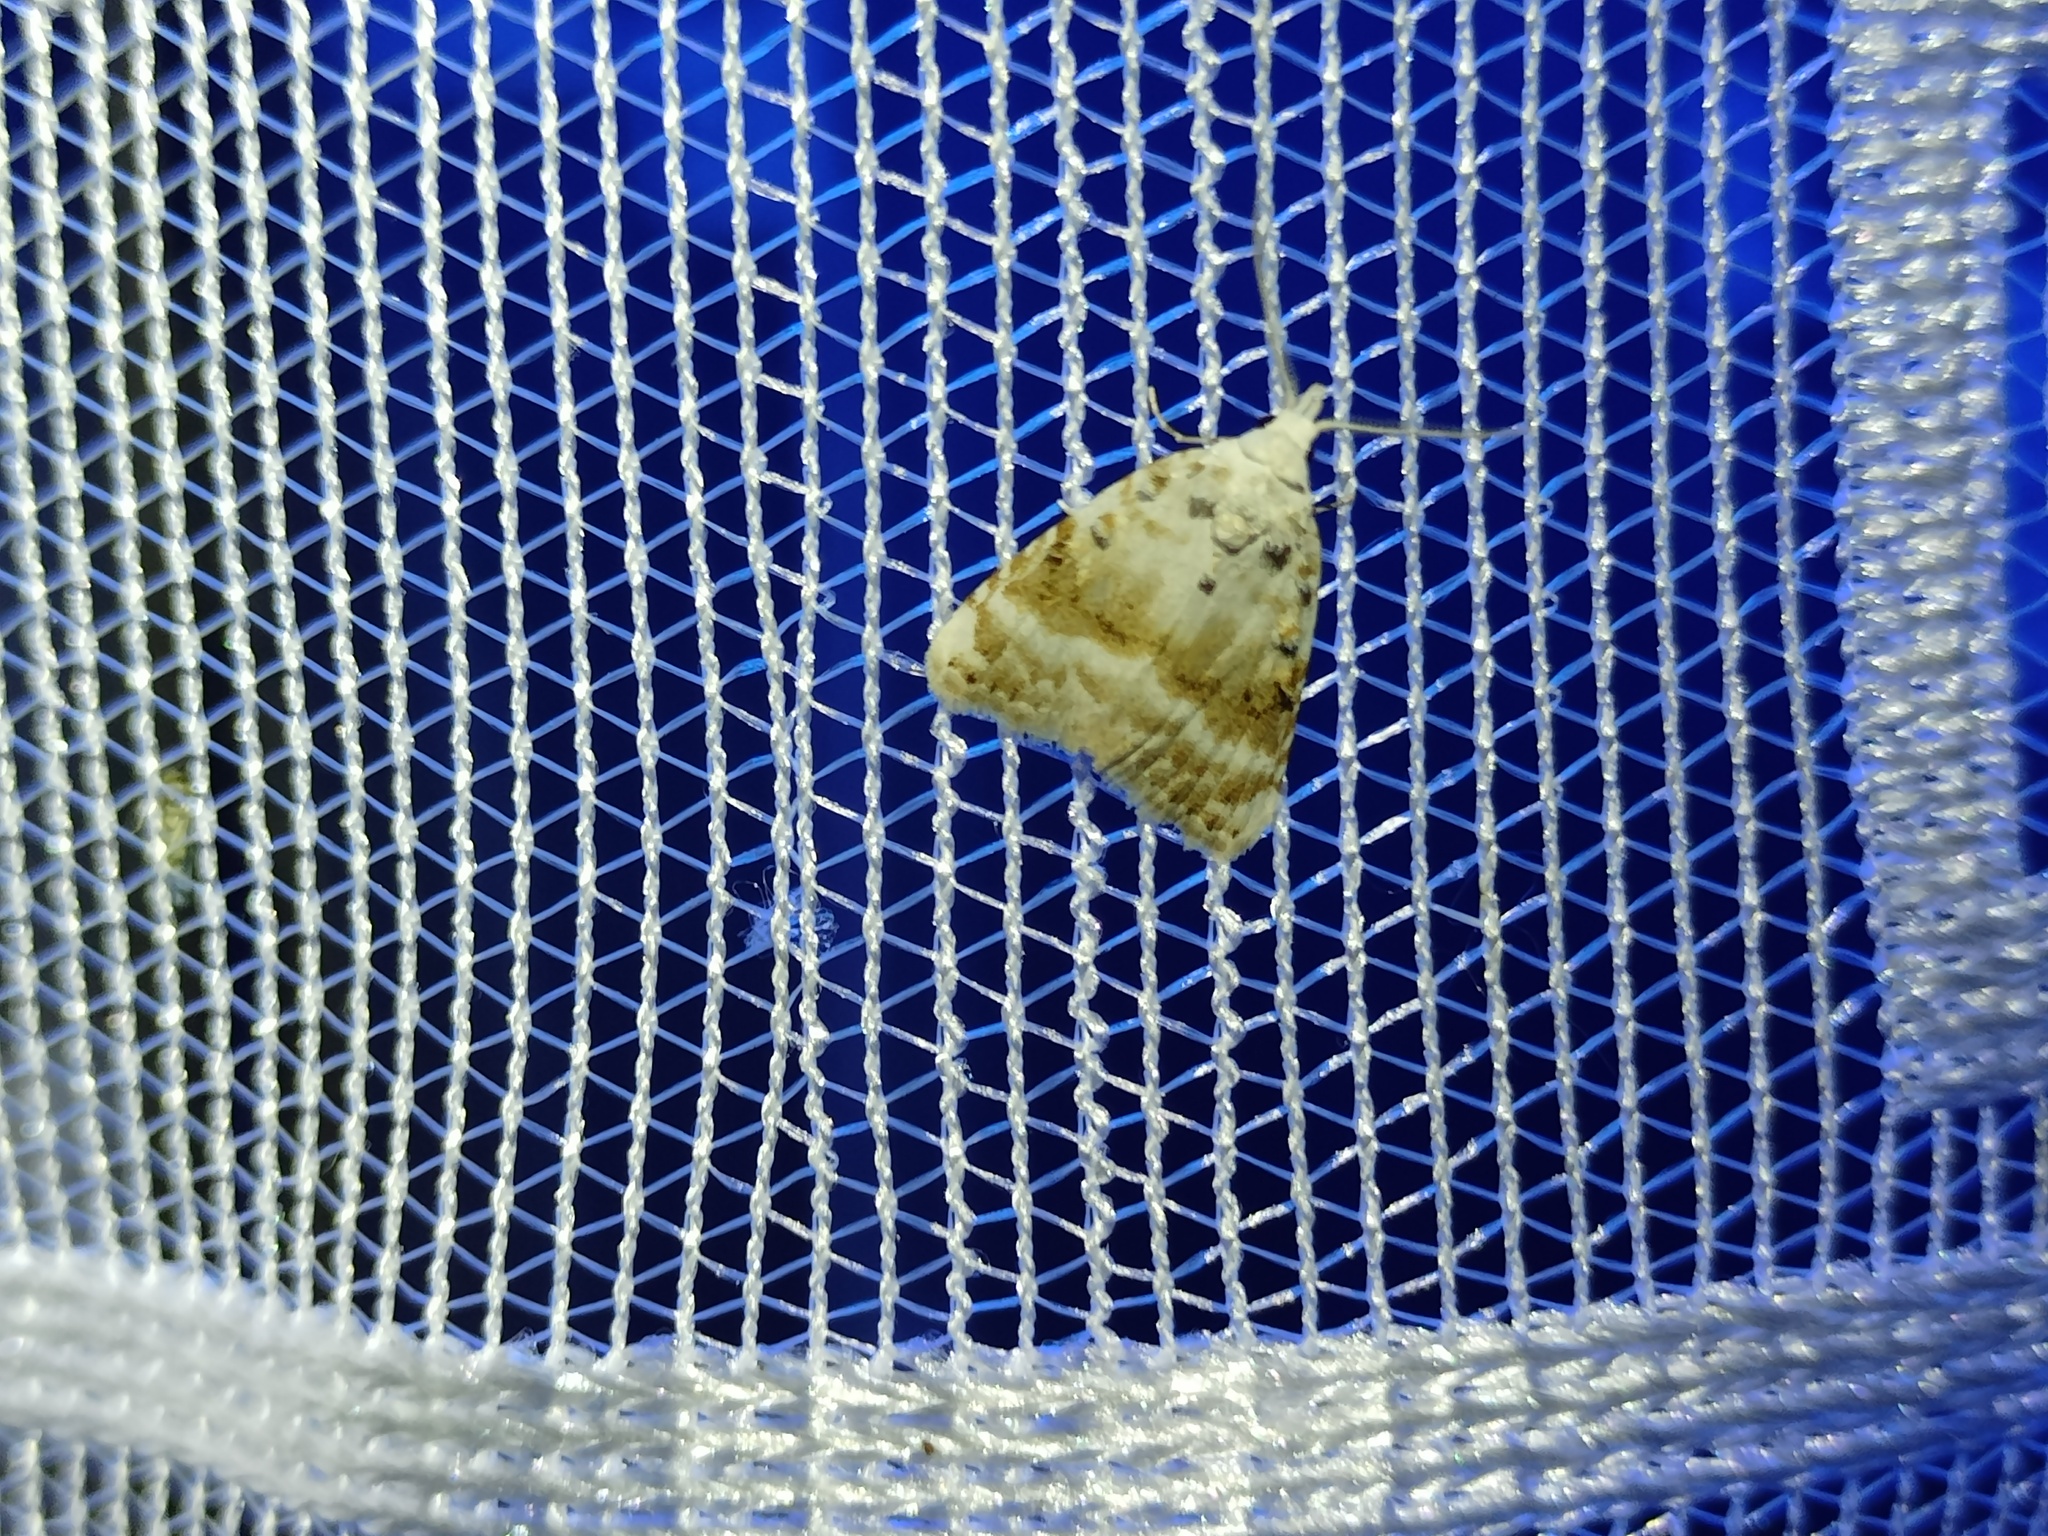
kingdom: Animalia
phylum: Arthropoda
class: Insecta
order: Lepidoptera
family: Nolidae
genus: Meganola
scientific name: Meganola albula
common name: Kent black arches
